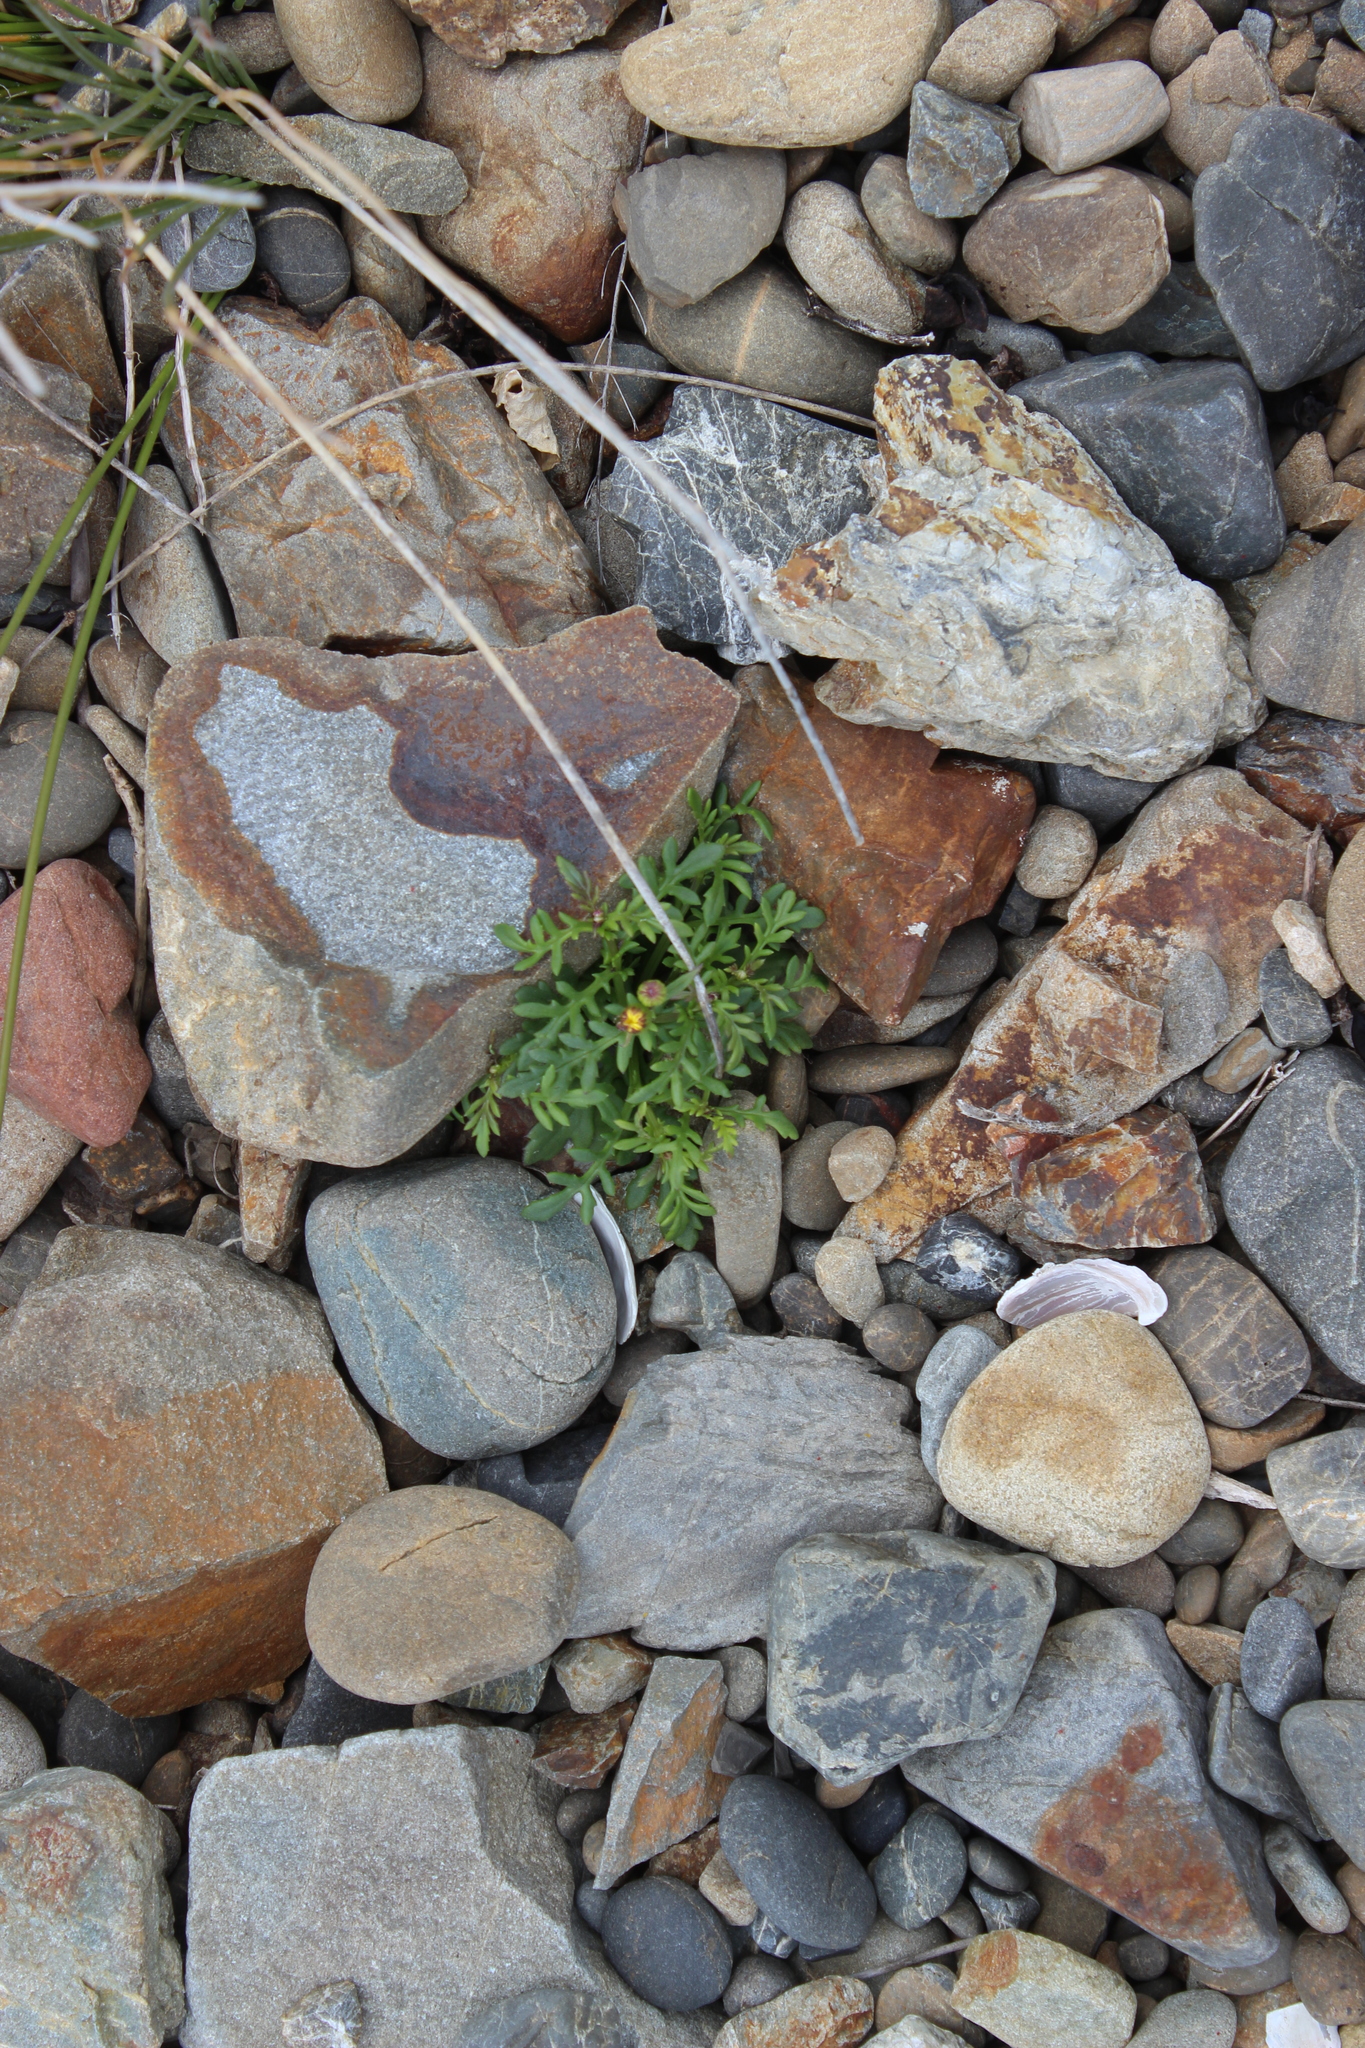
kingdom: Plantae
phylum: Tracheophyta
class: Magnoliopsida
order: Asterales
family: Asteraceae
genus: Senecio
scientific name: Senecio lautus
